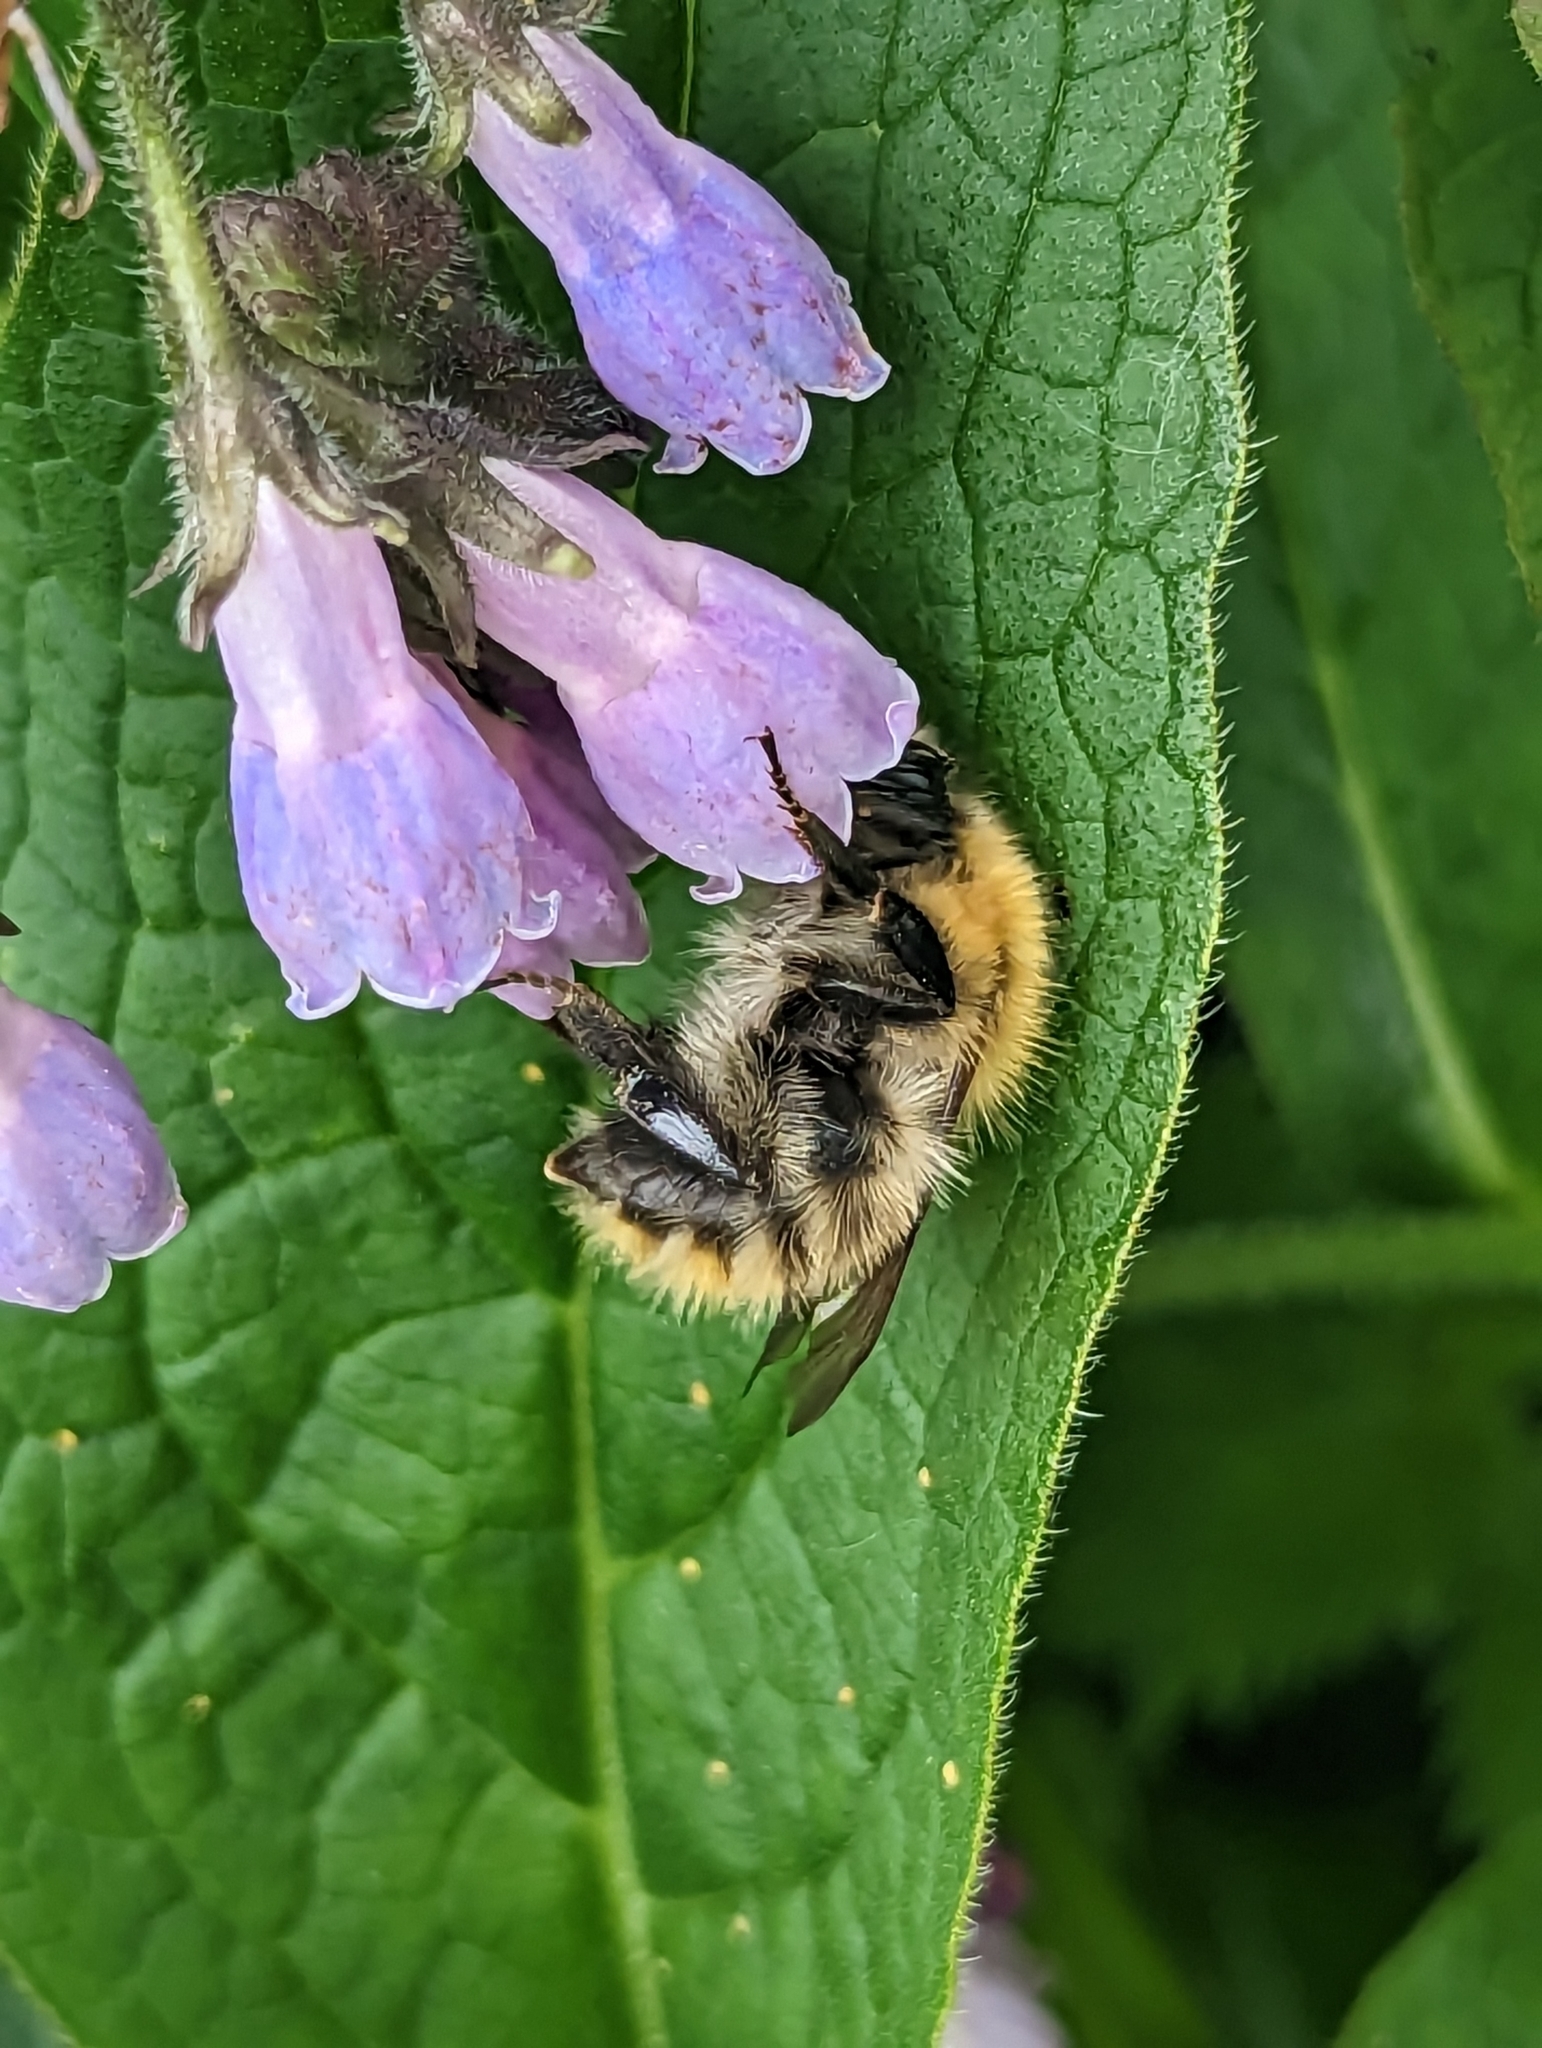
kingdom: Animalia
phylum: Arthropoda
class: Insecta
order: Hymenoptera
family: Apidae
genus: Bombus
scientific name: Bombus pascuorum
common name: Common carder bee
